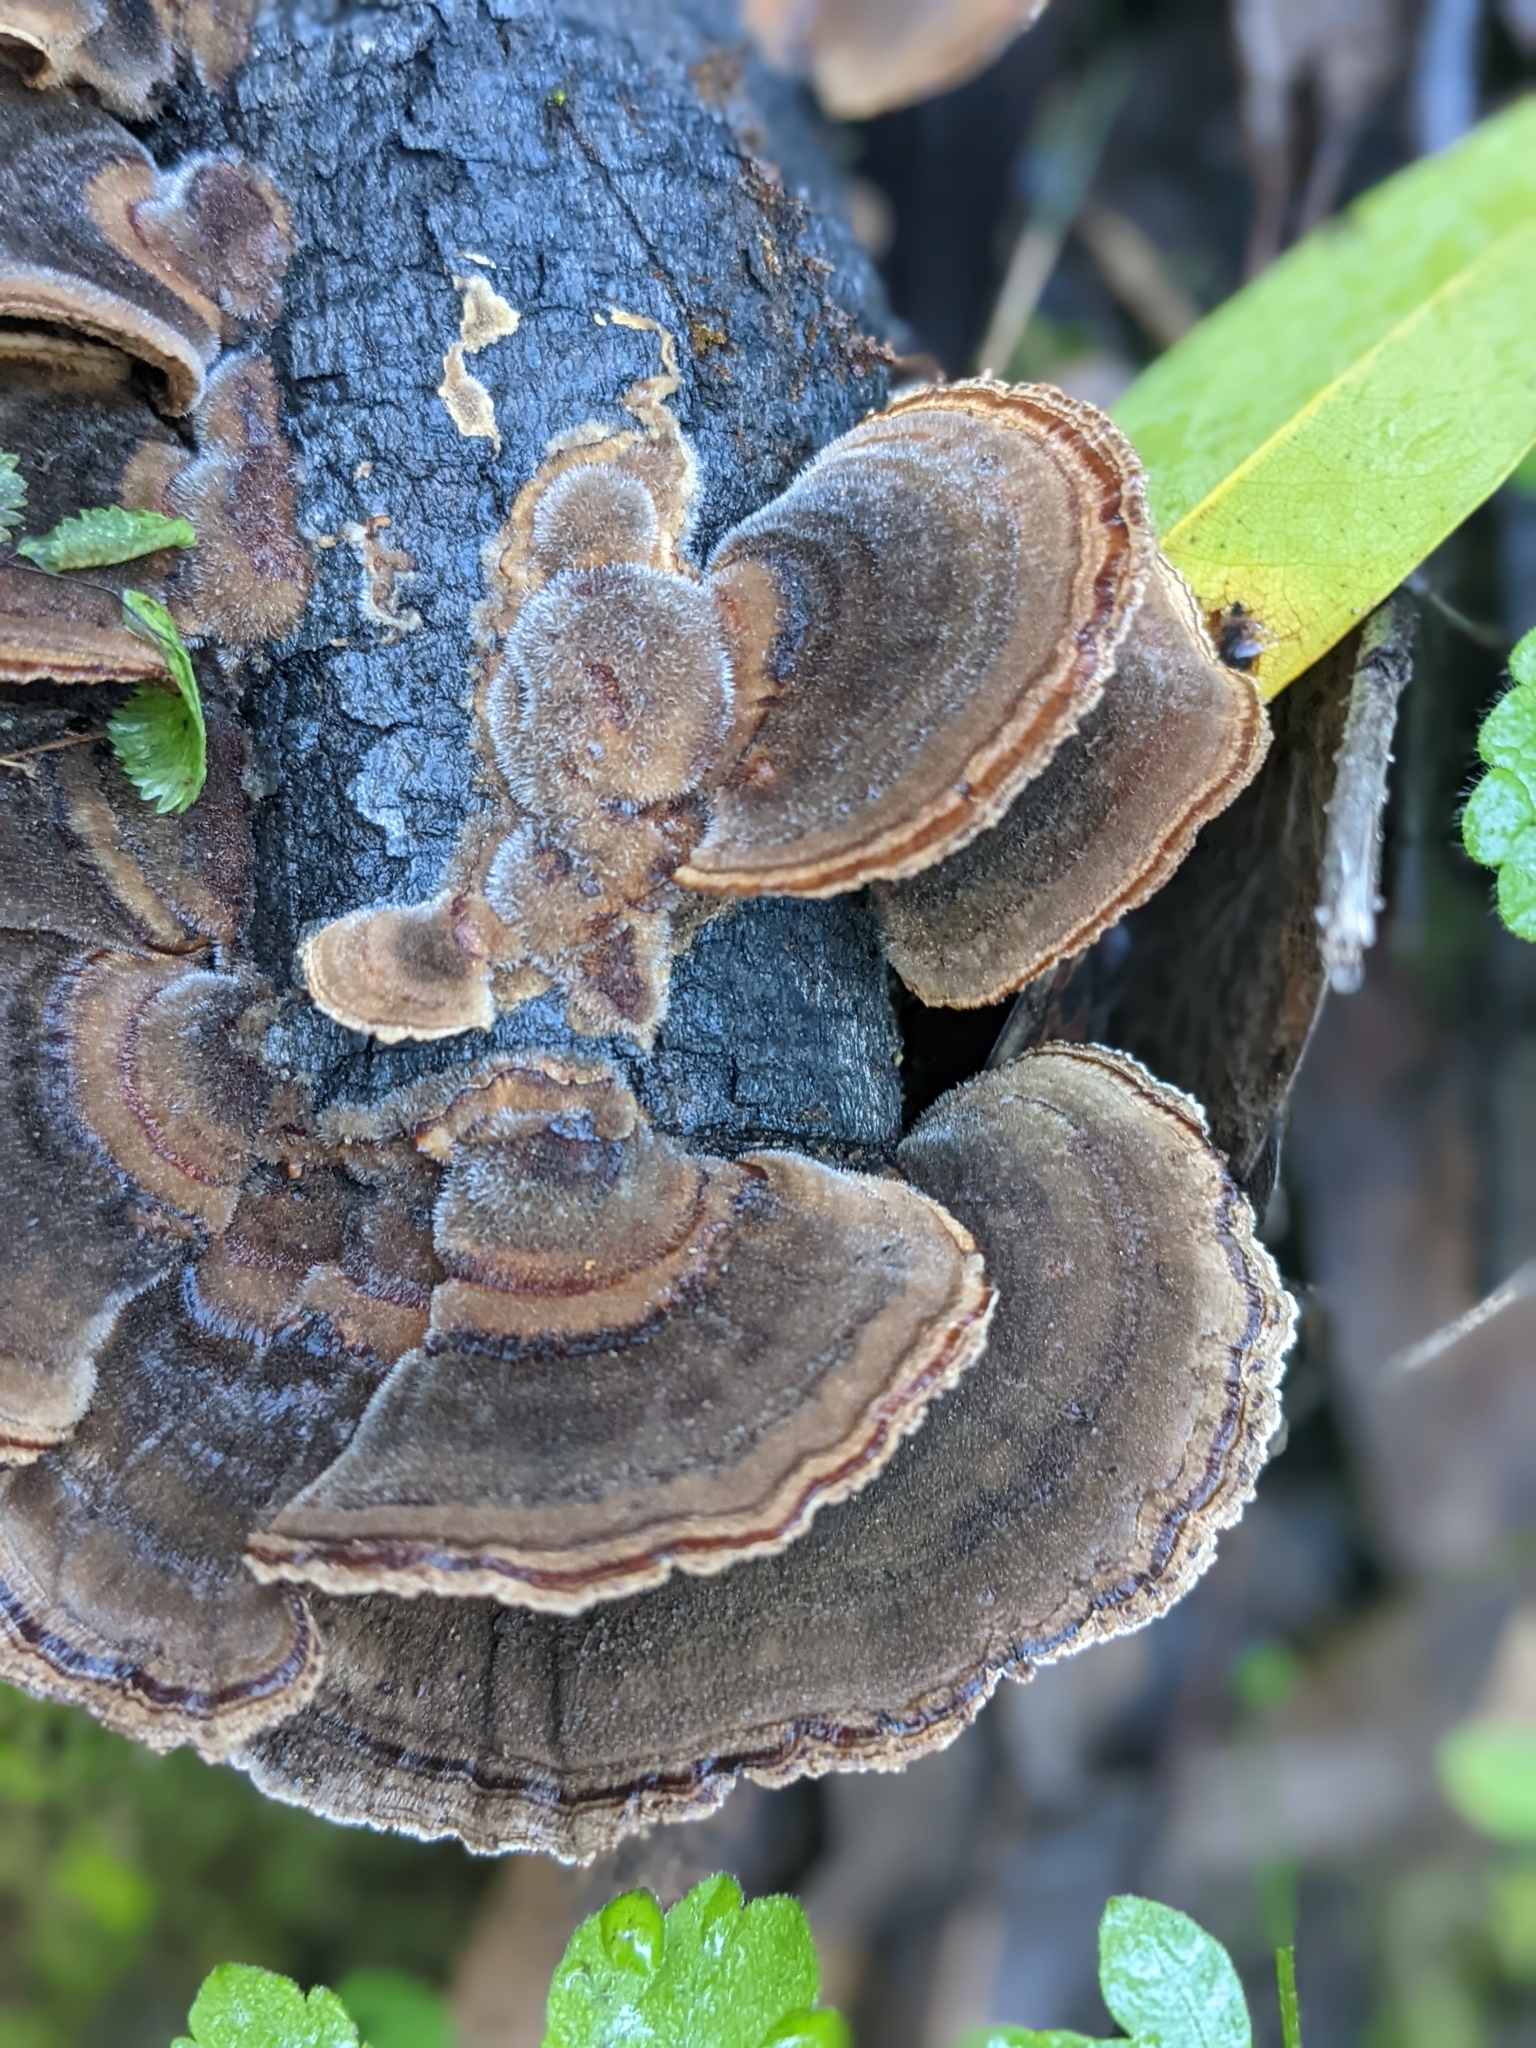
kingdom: Fungi
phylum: Basidiomycota
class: Agaricomycetes
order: Polyporales
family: Polyporaceae
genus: Trametes
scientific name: Trametes versicolor
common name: Turkeytail
